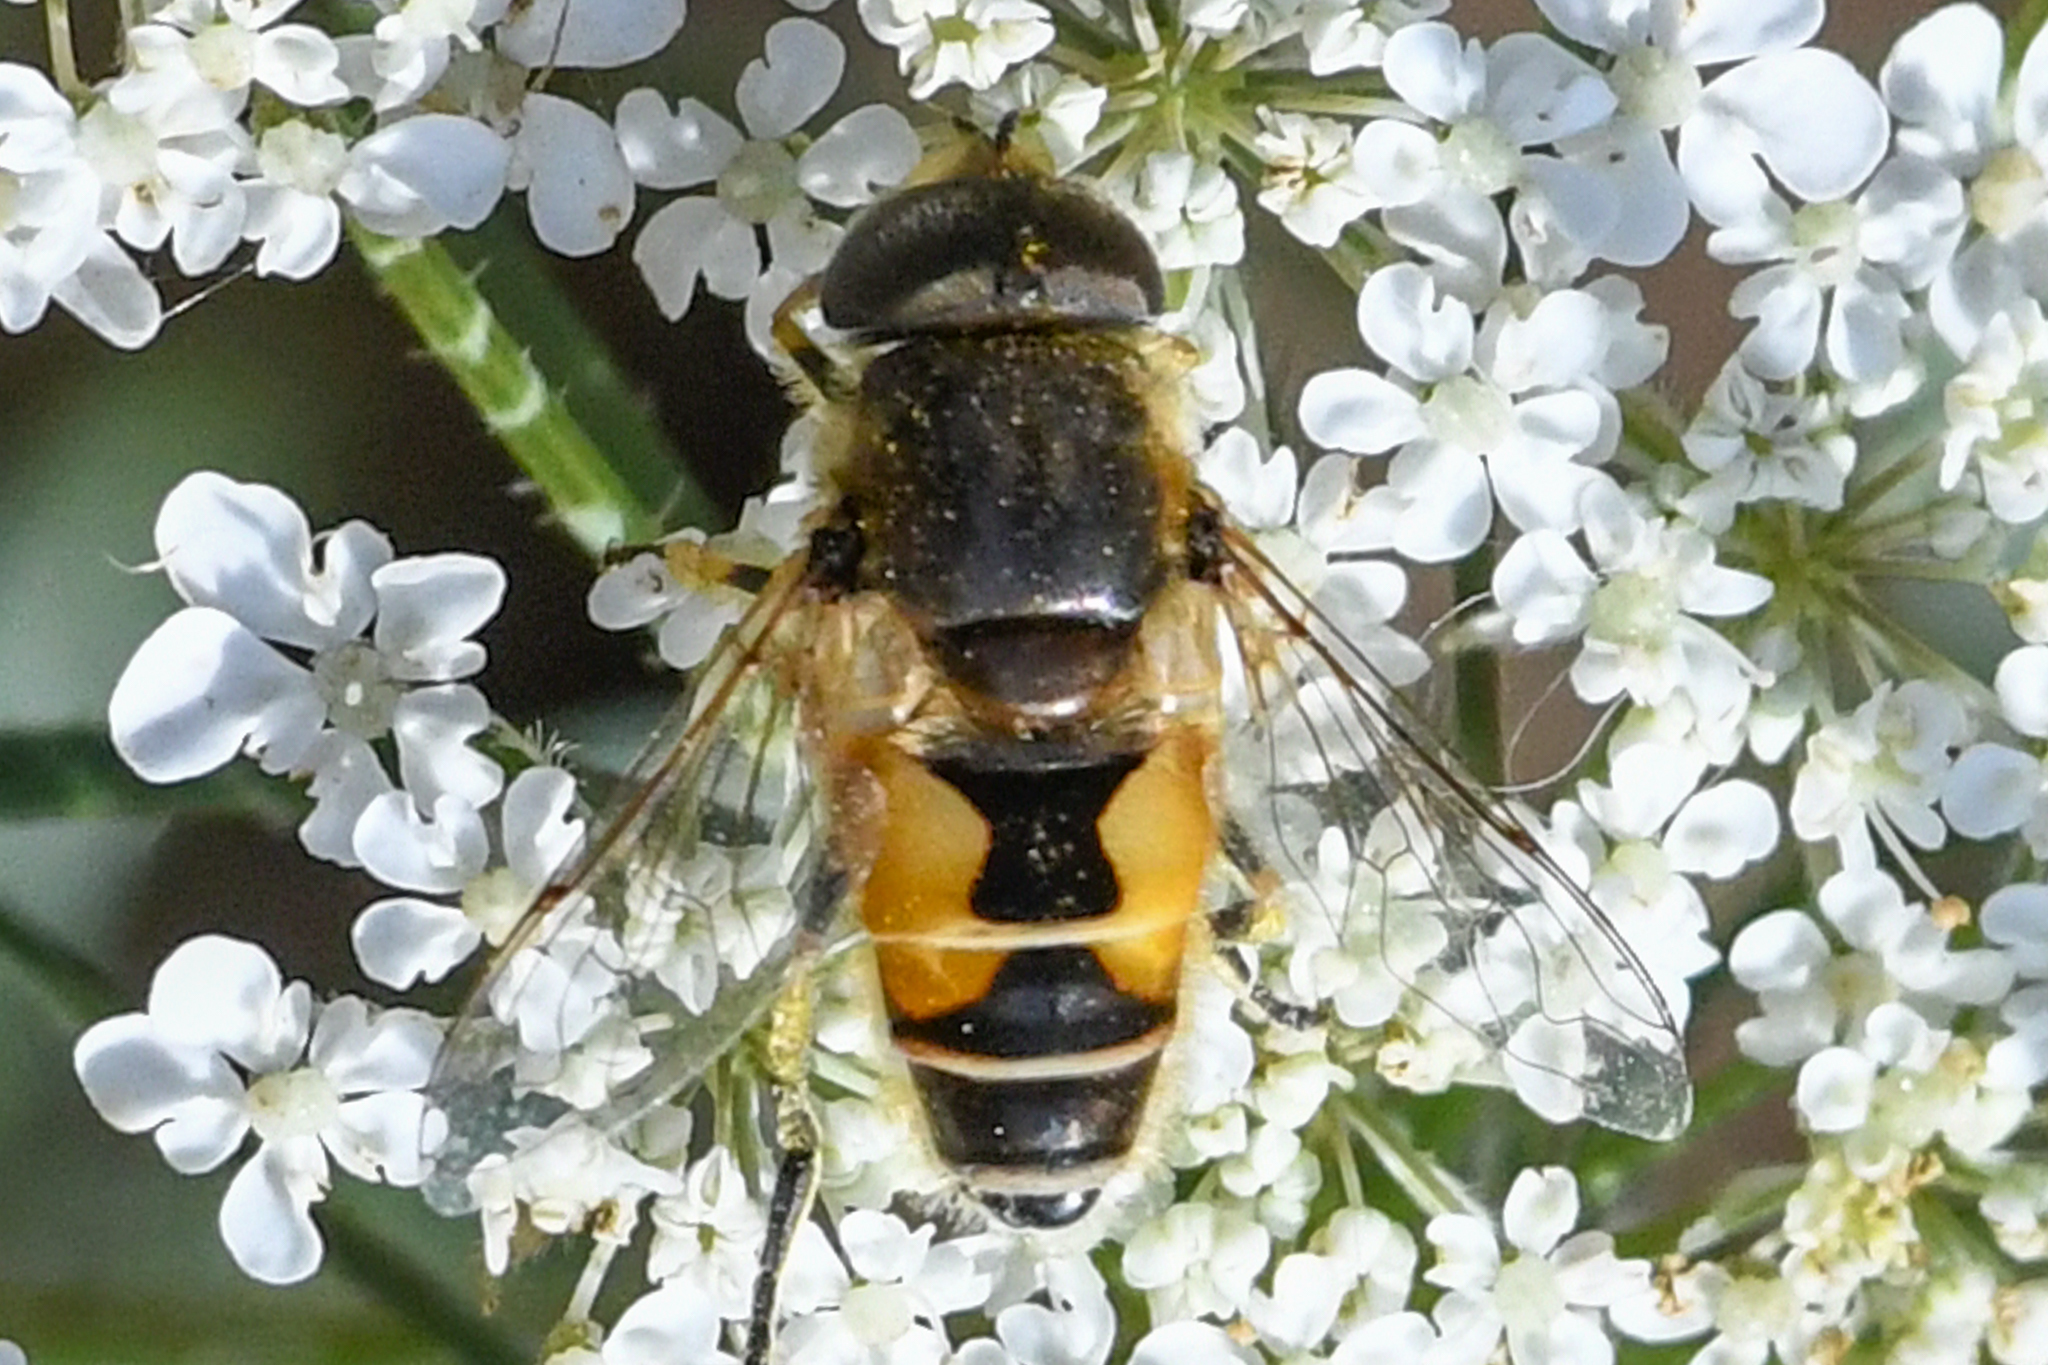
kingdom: Animalia
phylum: Arthropoda
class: Insecta
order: Diptera
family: Syrphidae
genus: Eristalis
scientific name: Eristalis arbustorum
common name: Hover fly
